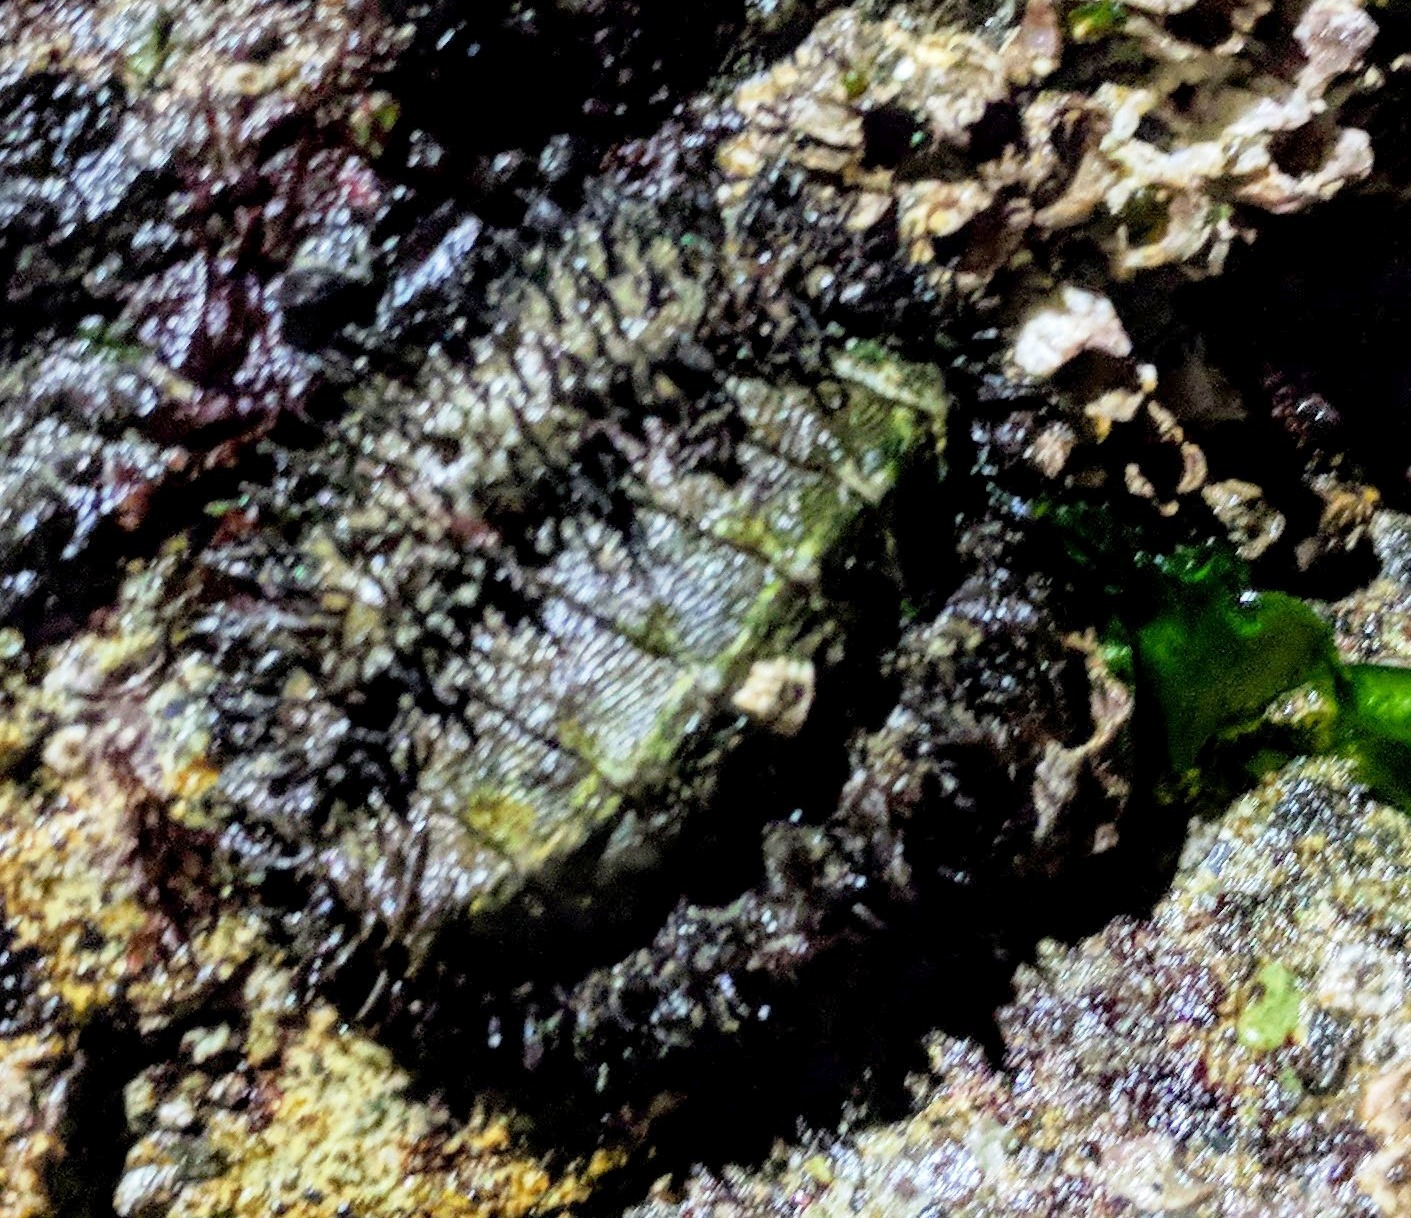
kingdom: Animalia
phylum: Mollusca
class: Polyplacophora
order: Chitonida
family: Mopaliidae
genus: Mopalia
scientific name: Mopalia muscosa
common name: Mossy chiton
